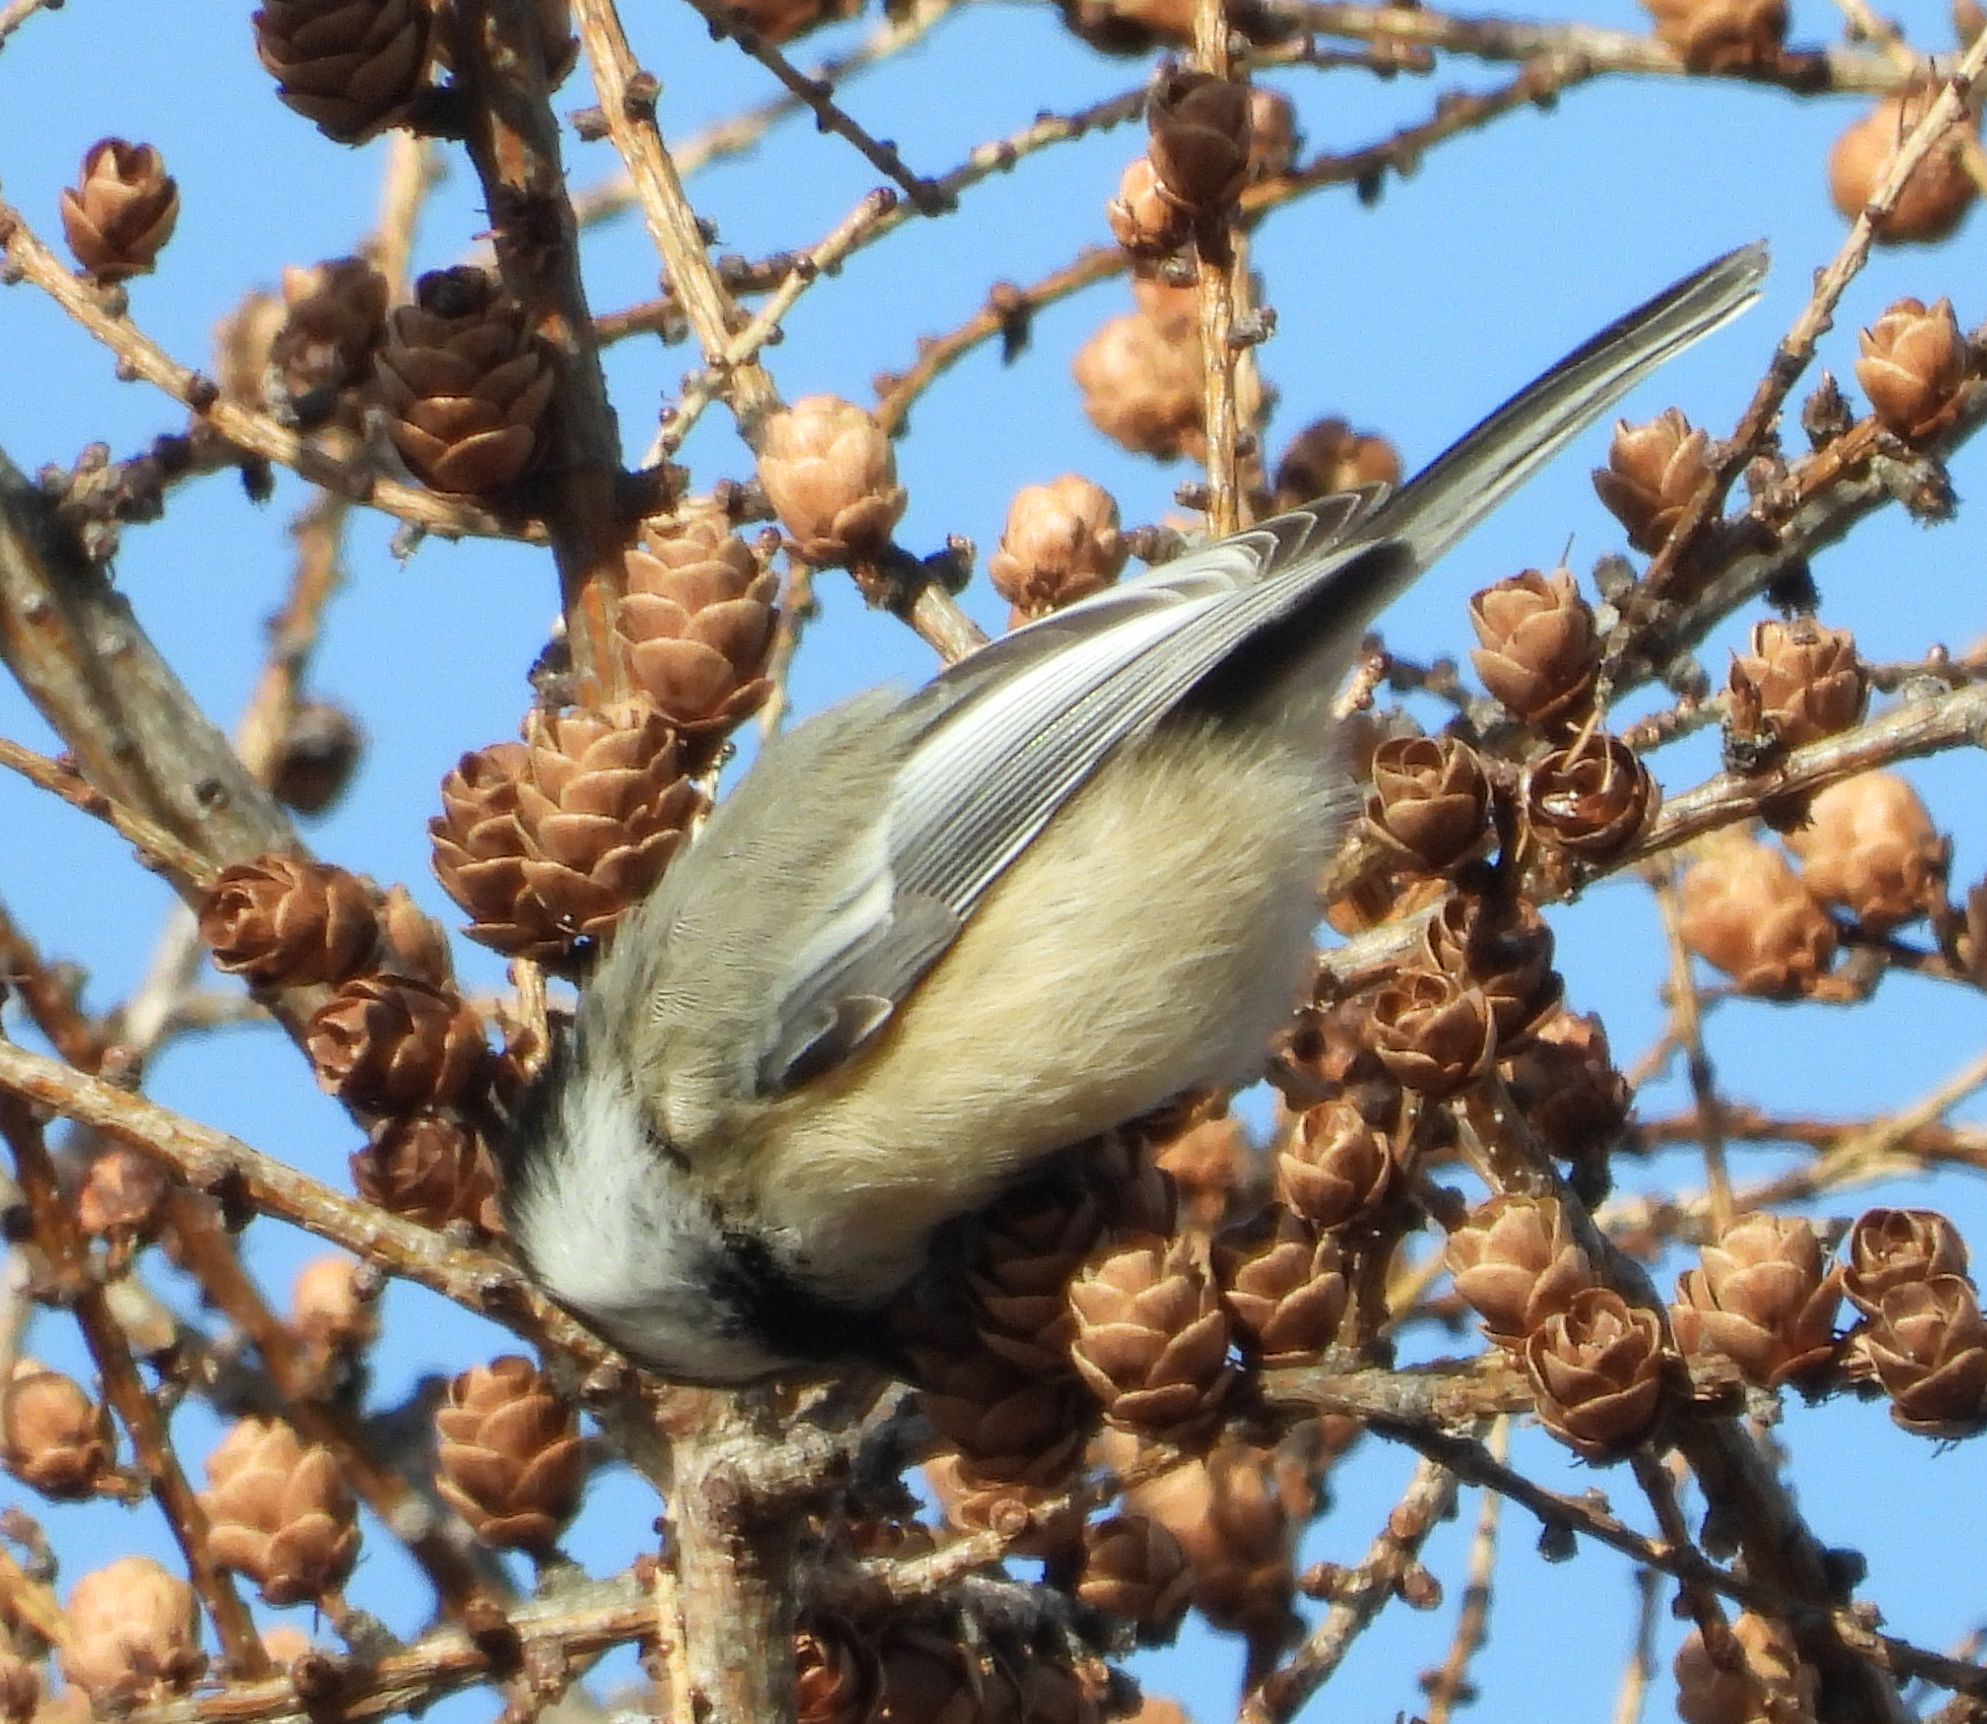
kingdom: Animalia
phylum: Chordata
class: Aves
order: Passeriformes
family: Paridae
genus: Poecile
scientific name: Poecile atricapillus
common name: Black-capped chickadee
